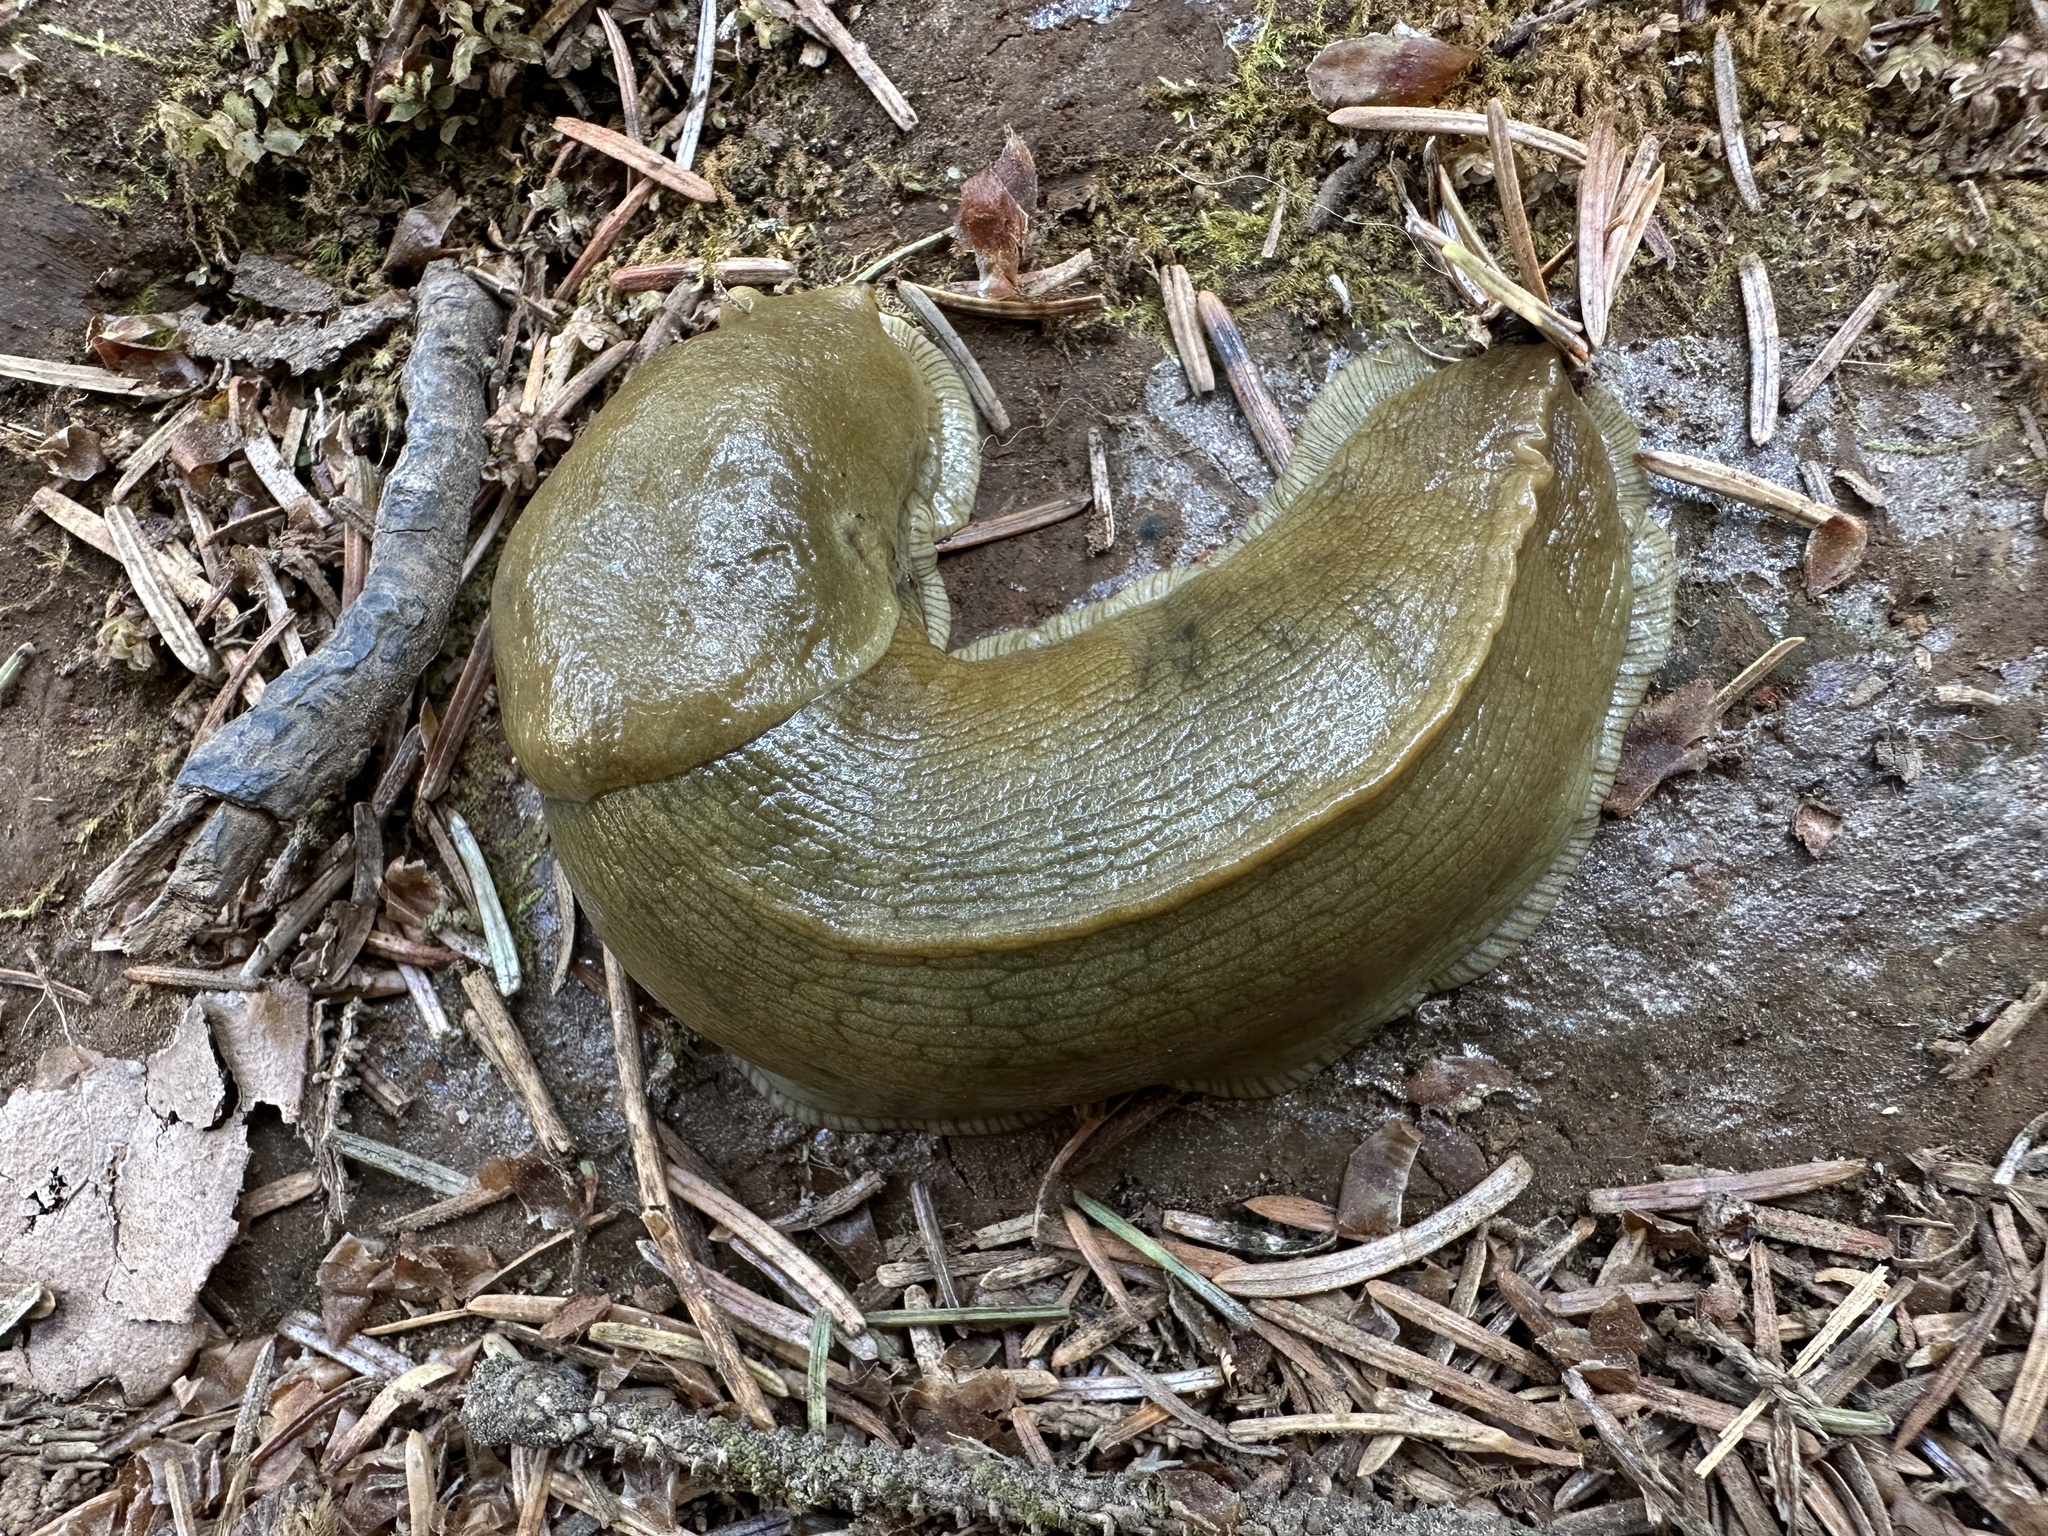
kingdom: Animalia
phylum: Mollusca
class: Gastropoda
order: Stylommatophora
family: Ariolimacidae
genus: Ariolimax
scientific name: Ariolimax columbianus
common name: Pacific banana slug
